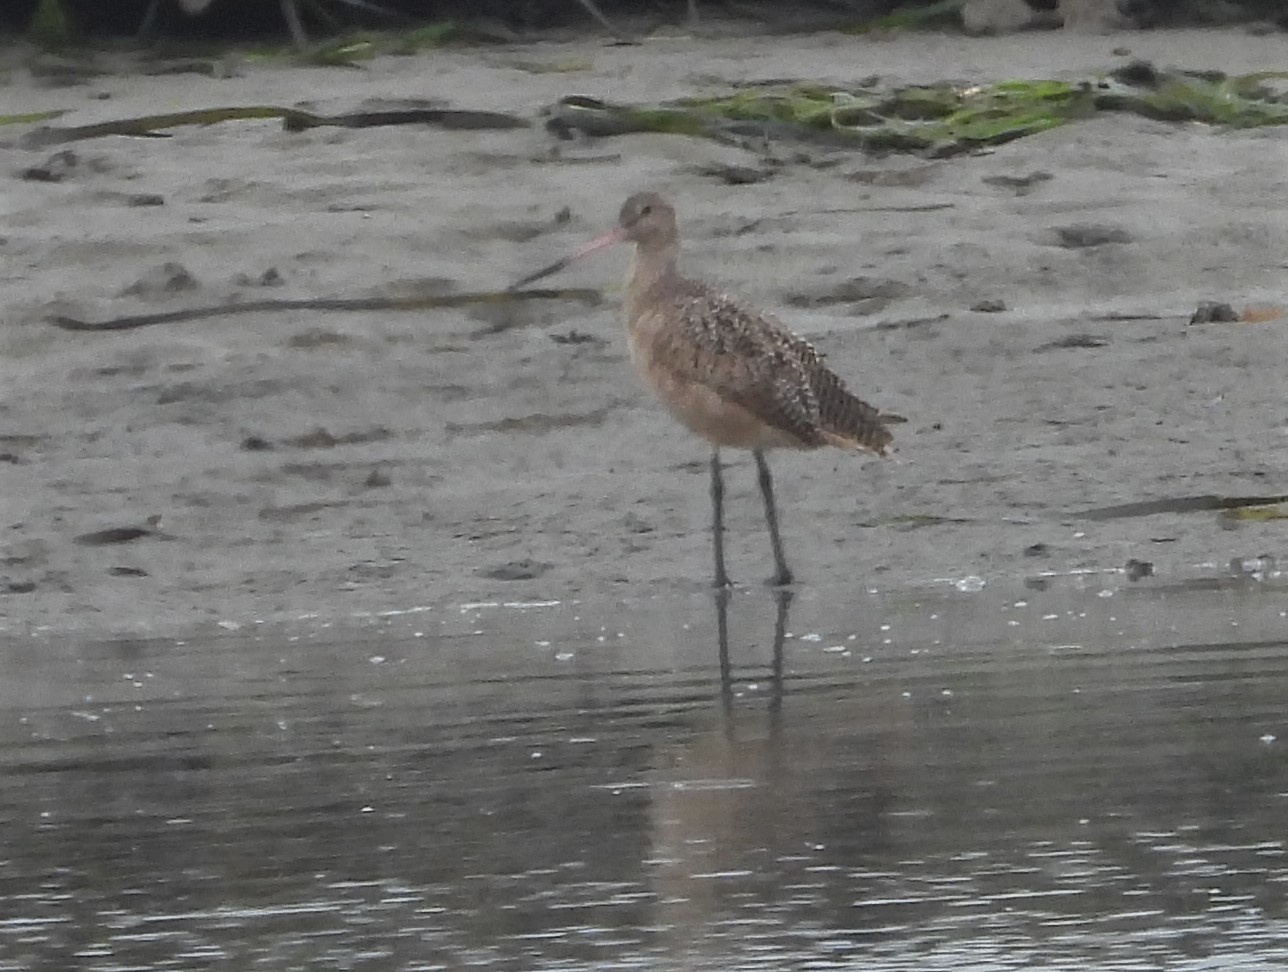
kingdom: Animalia
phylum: Chordata
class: Aves
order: Charadriiformes
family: Scolopacidae
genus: Limosa
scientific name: Limosa fedoa
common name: Marbled godwit
